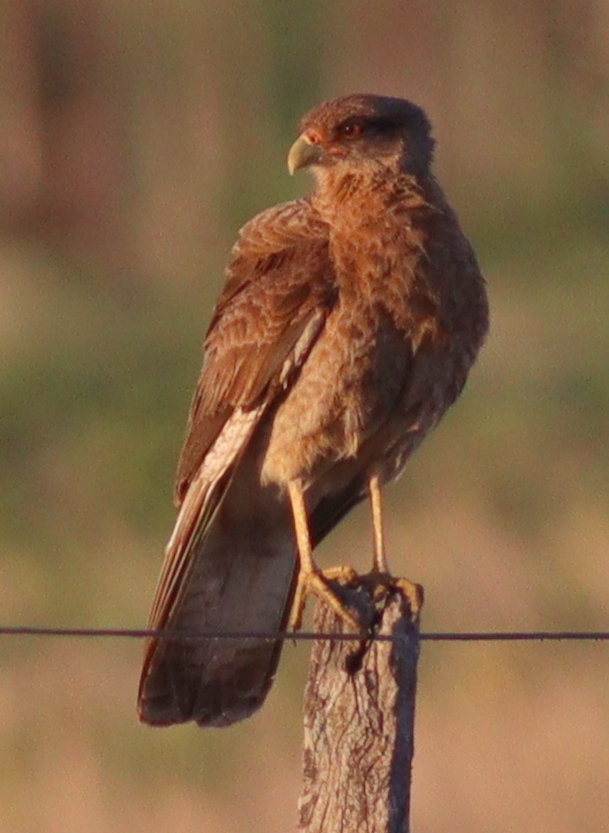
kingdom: Animalia
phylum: Chordata
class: Aves
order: Falconiformes
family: Falconidae
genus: Daptrius
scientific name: Daptrius
